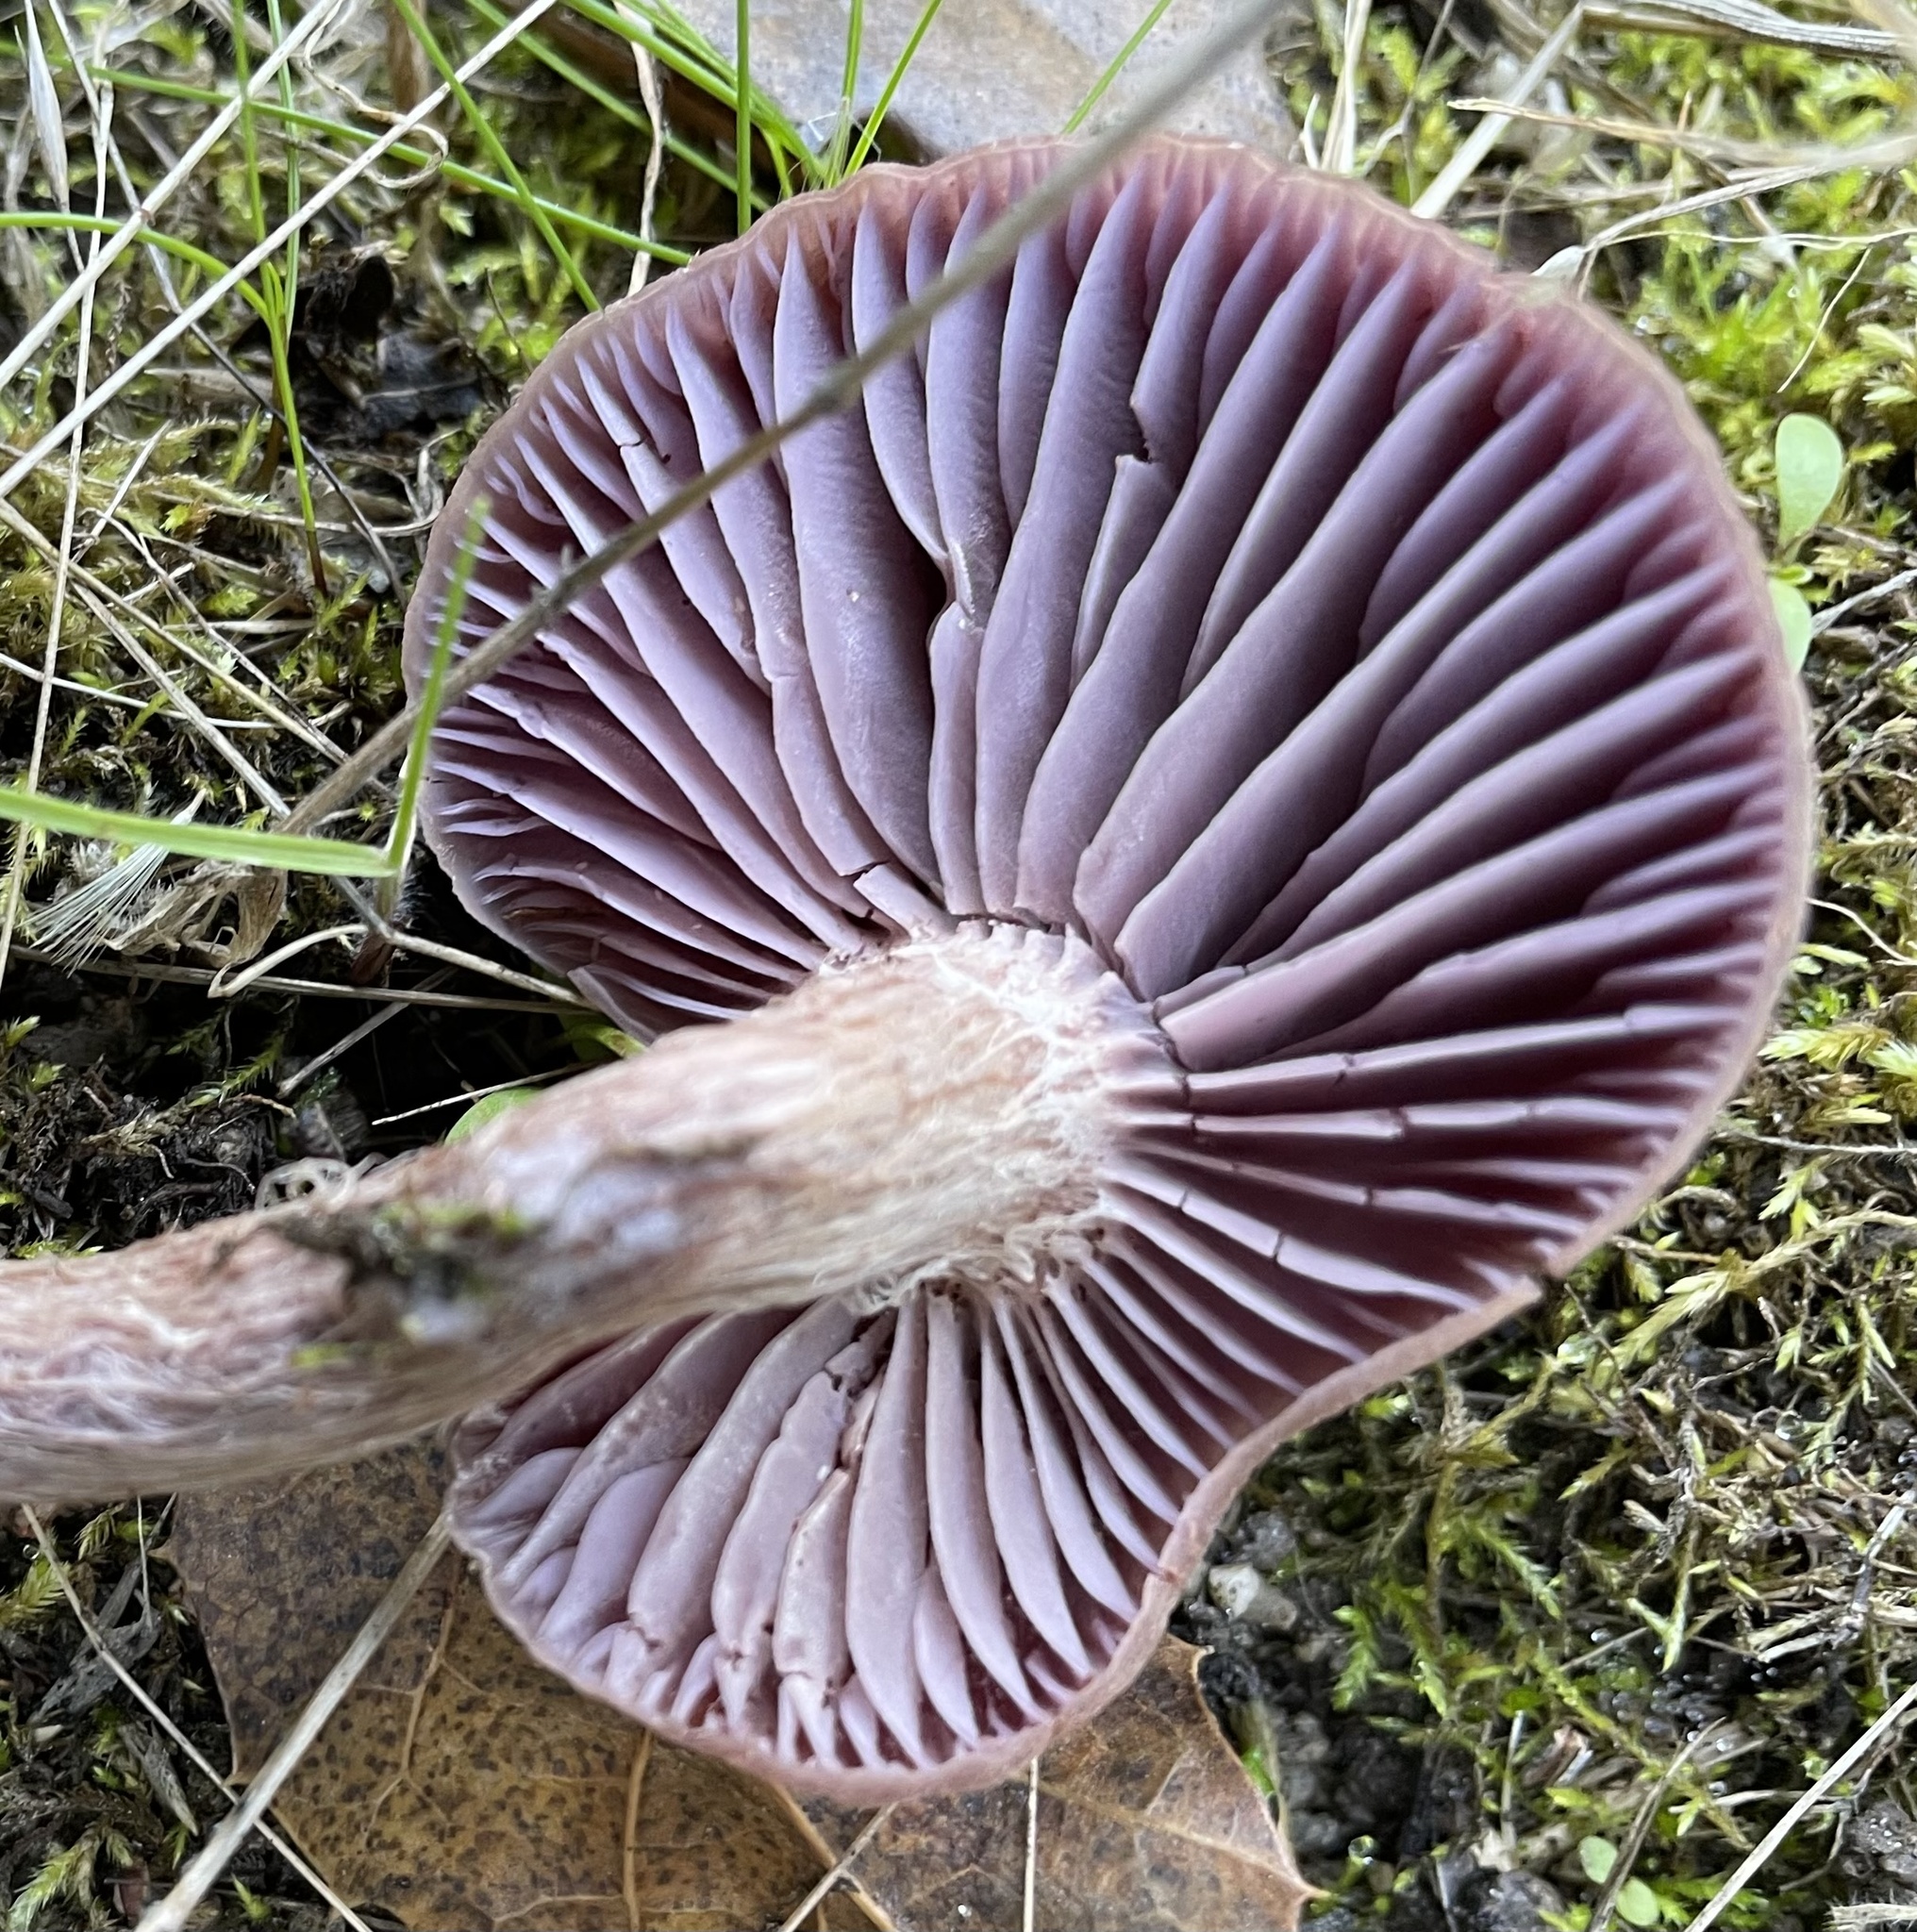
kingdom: Fungi
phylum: Basidiomycota
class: Agaricomycetes
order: Agaricales
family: Hydnangiaceae
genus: Laccaria
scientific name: Laccaria amethysteo-occidentalis
